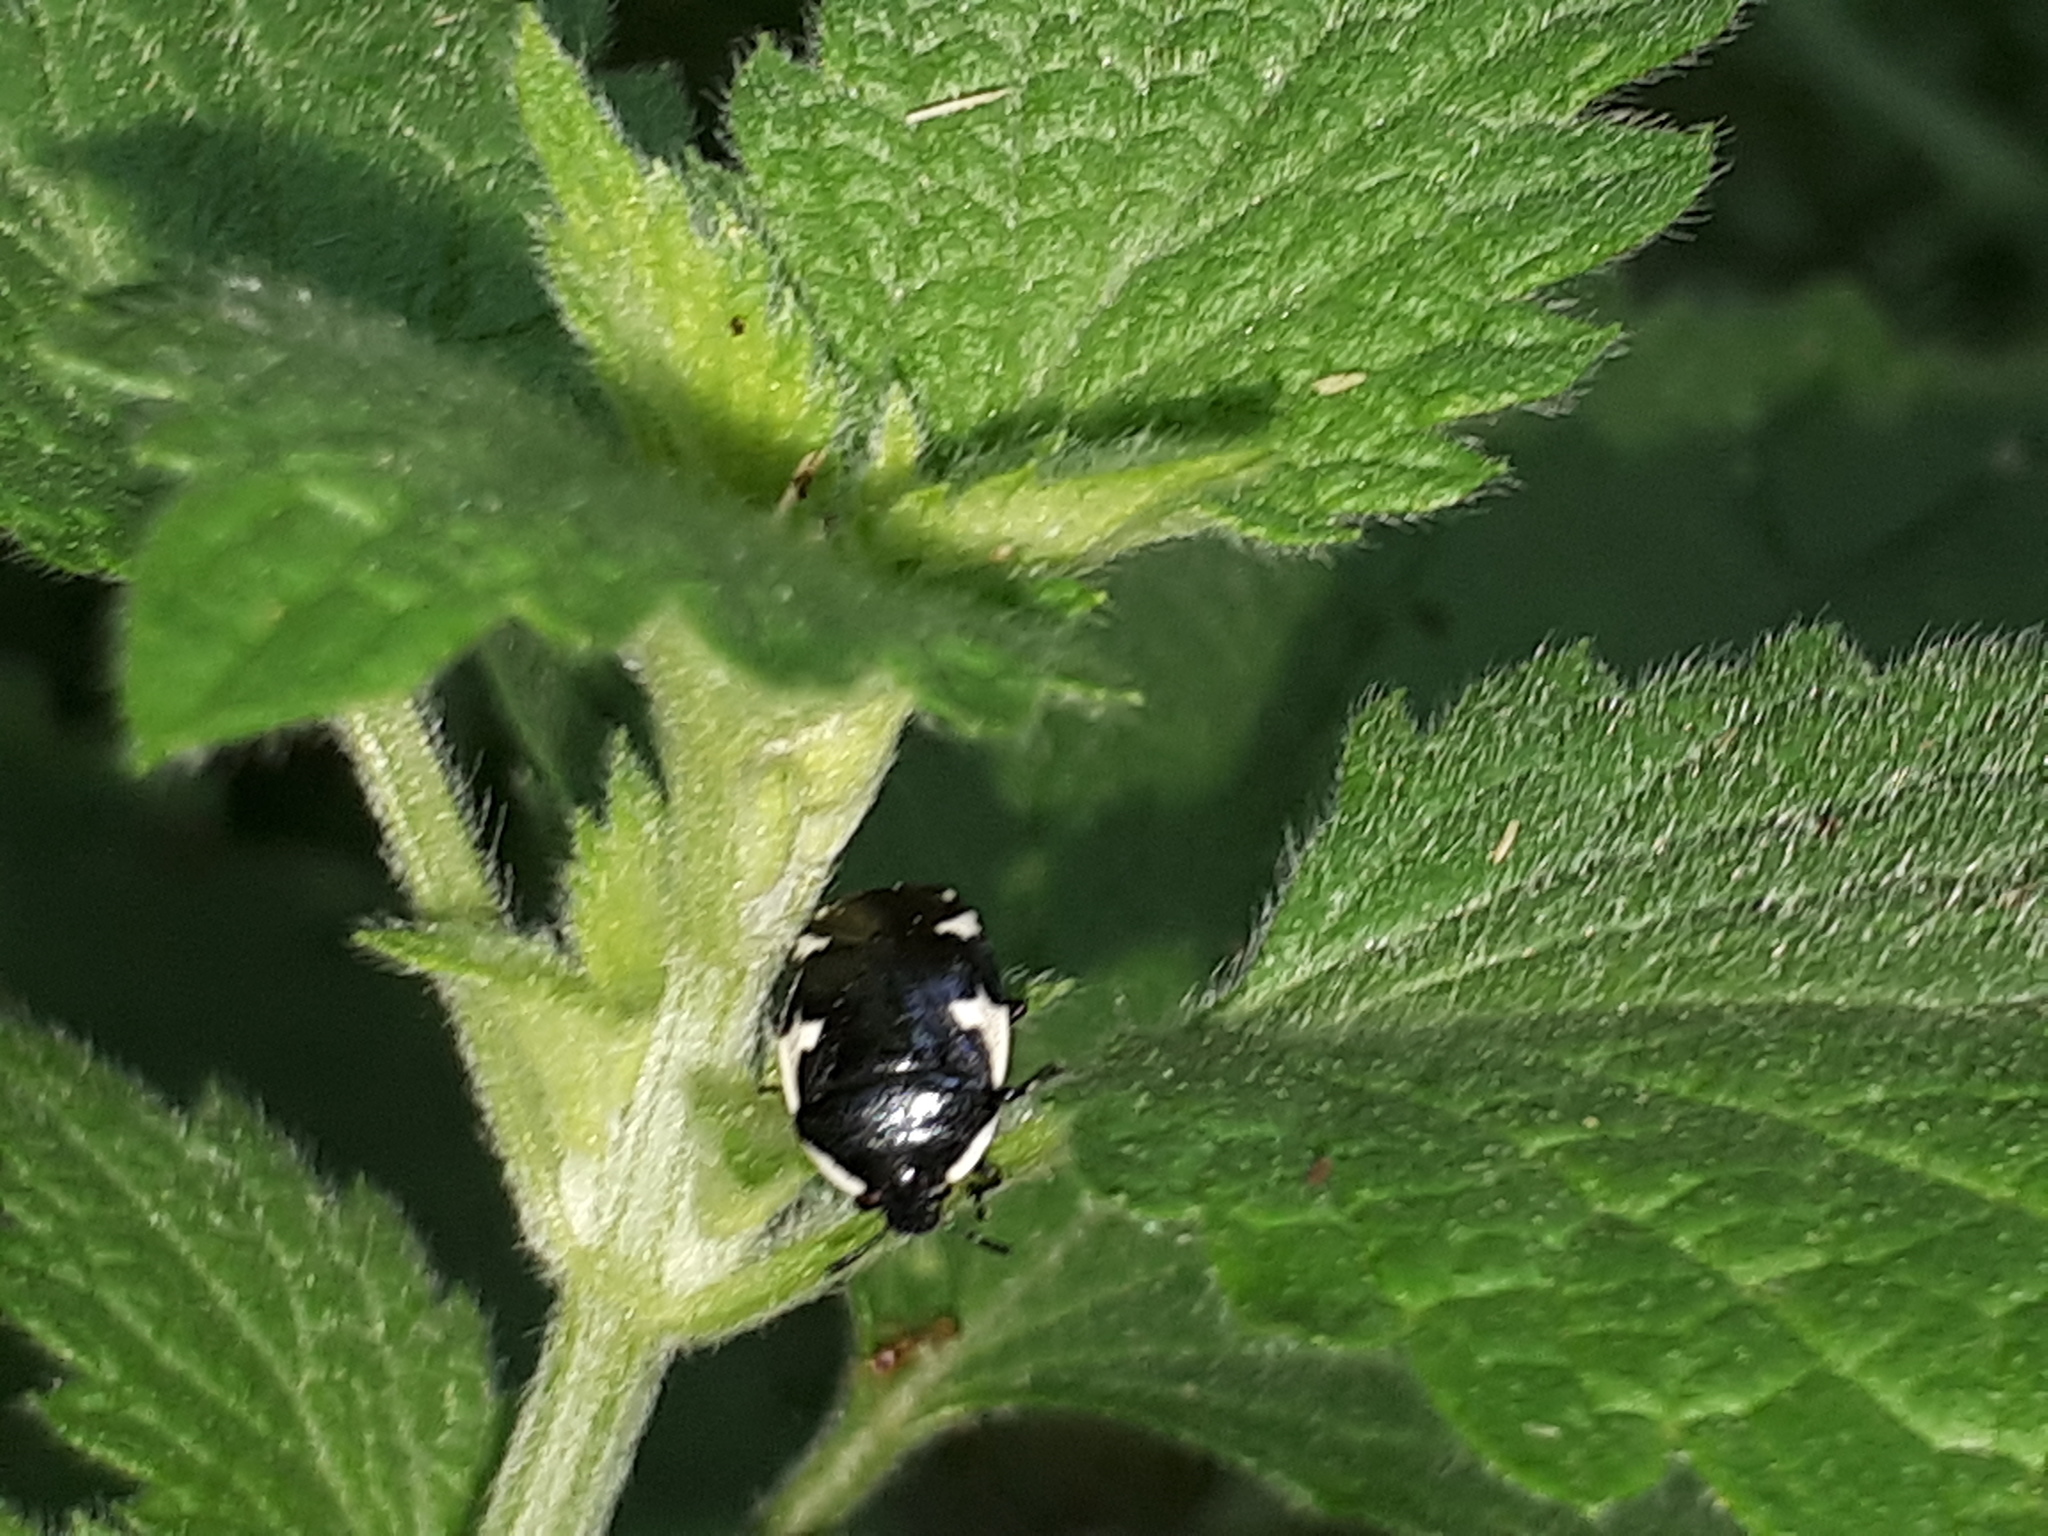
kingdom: Animalia
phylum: Arthropoda
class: Insecta
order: Hemiptera
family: Cydnidae
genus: Tritomegas
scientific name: Tritomegas sexmaculatus
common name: Rambur's pied shieldbug
